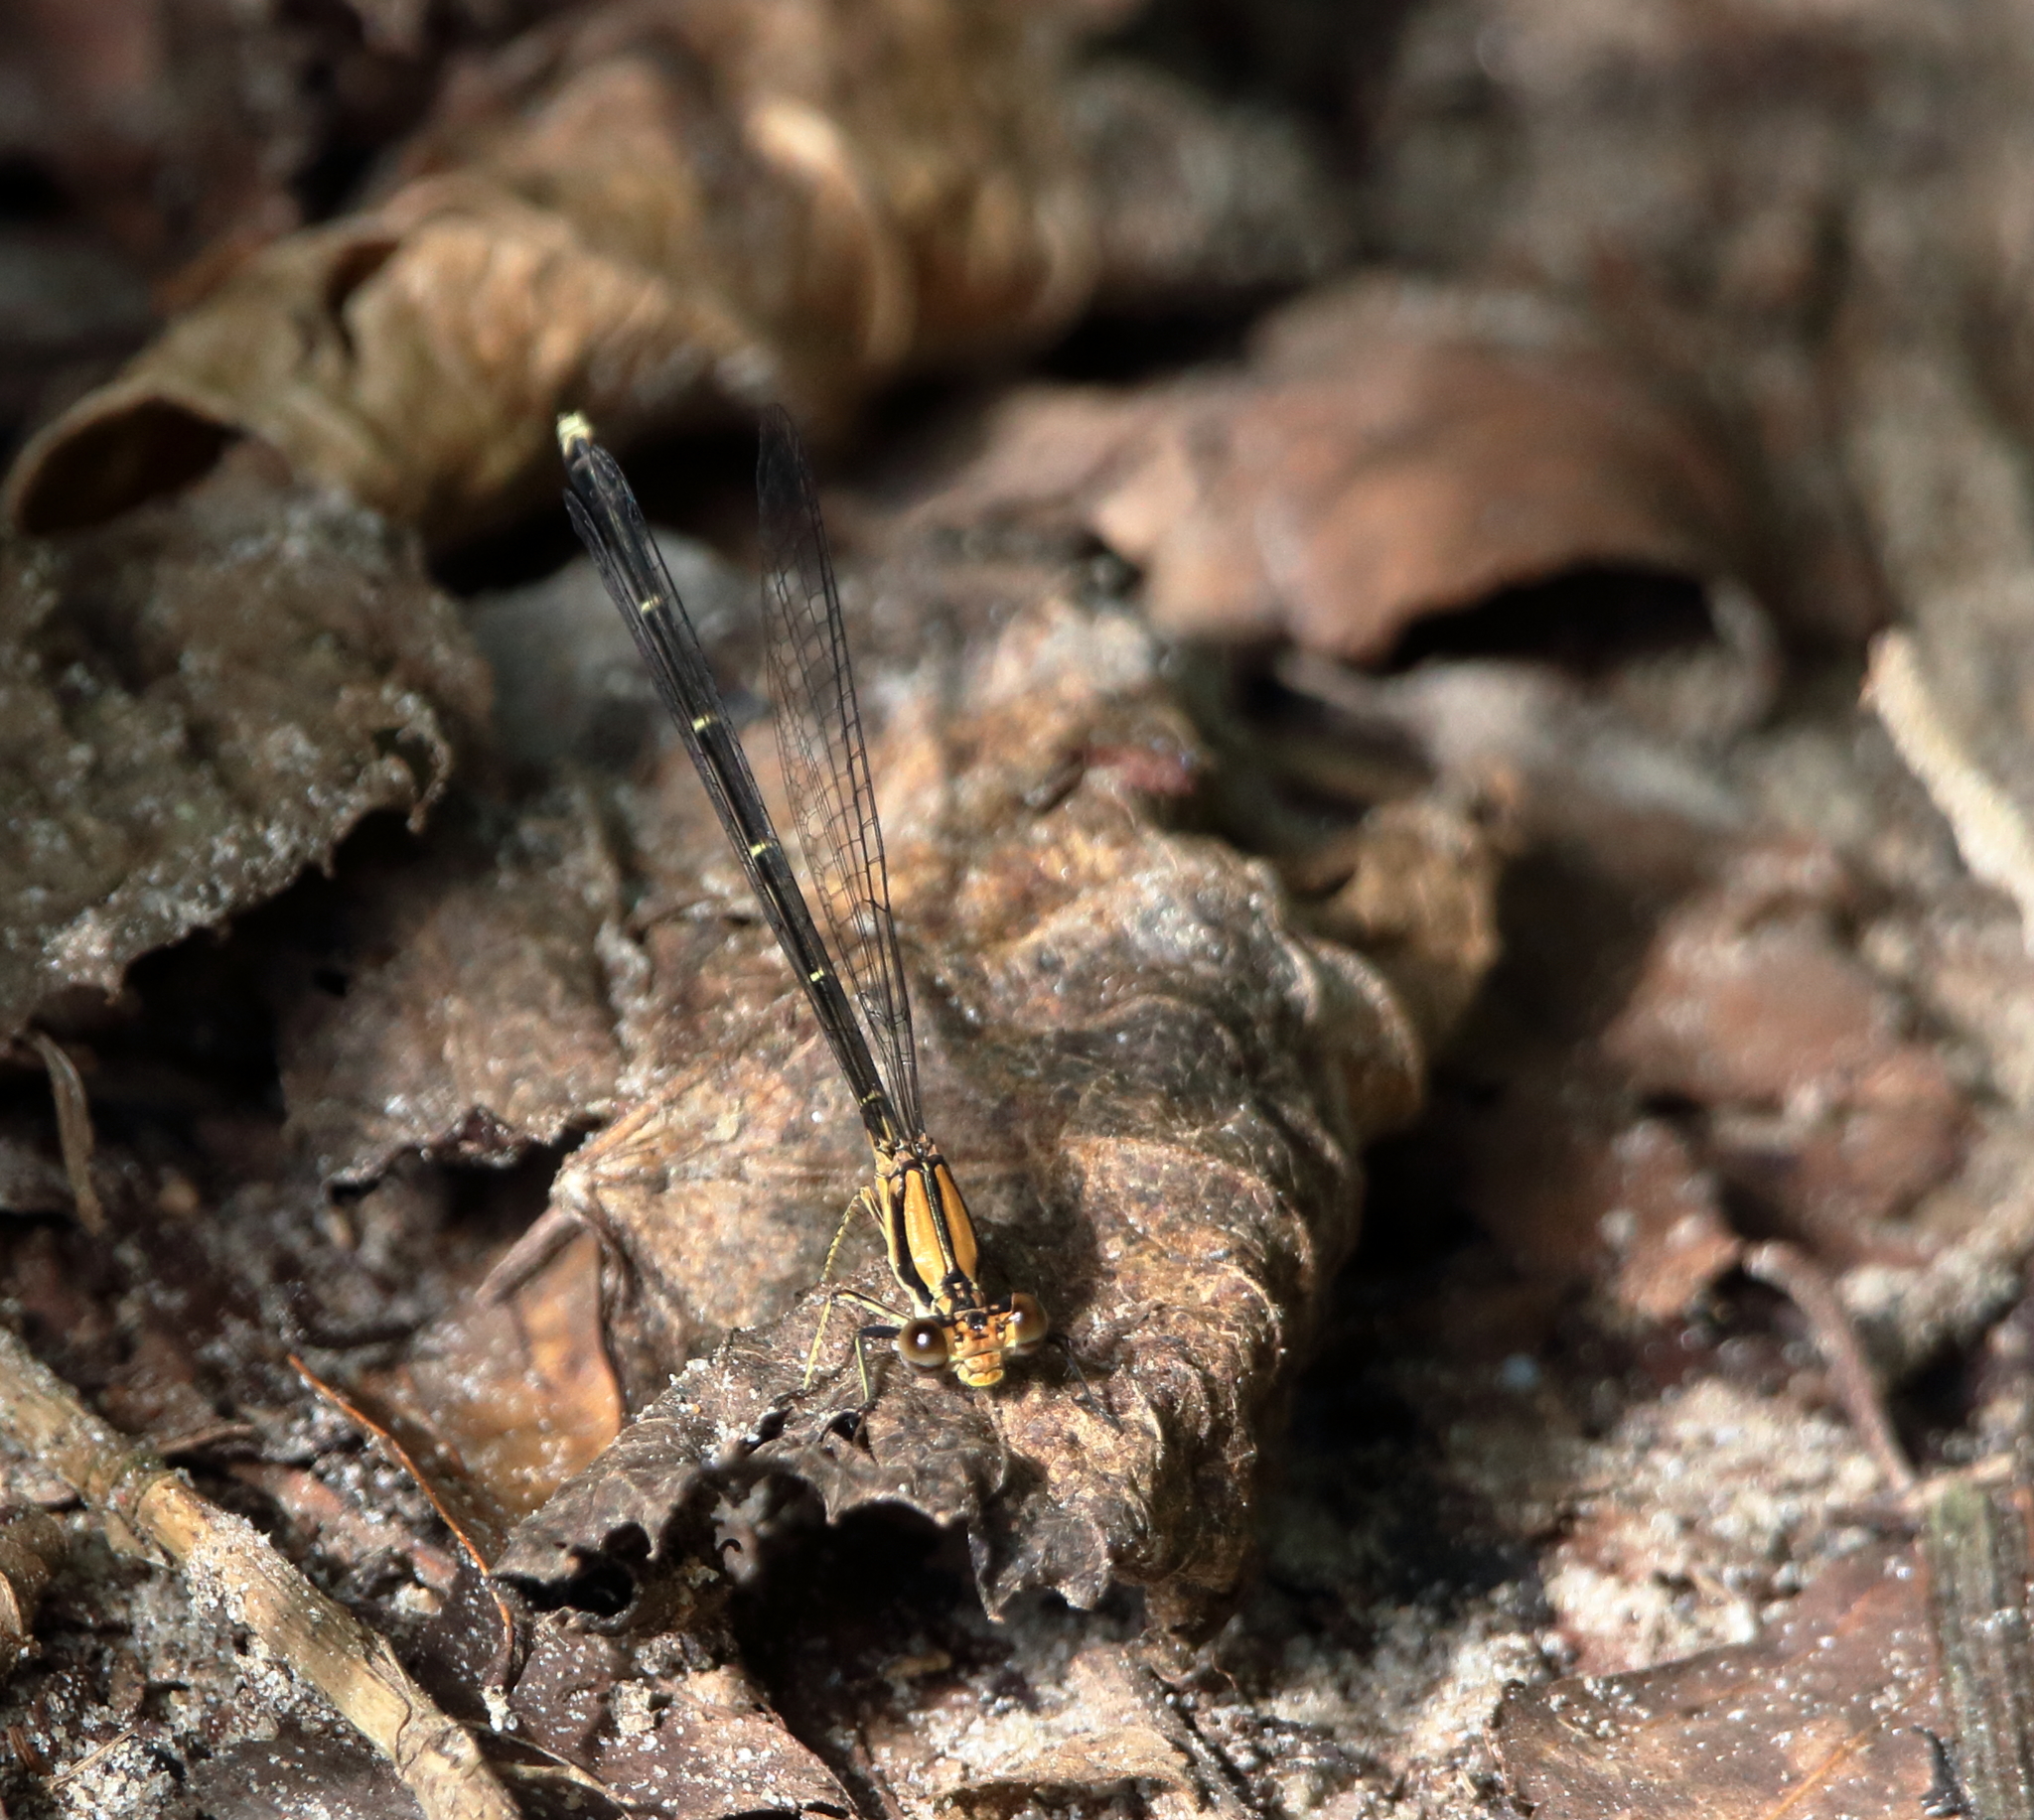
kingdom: Animalia
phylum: Arthropoda
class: Insecta
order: Odonata
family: Coenagrionidae
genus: Argia
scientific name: Argia tibialis
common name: Blue-tipped dancer
